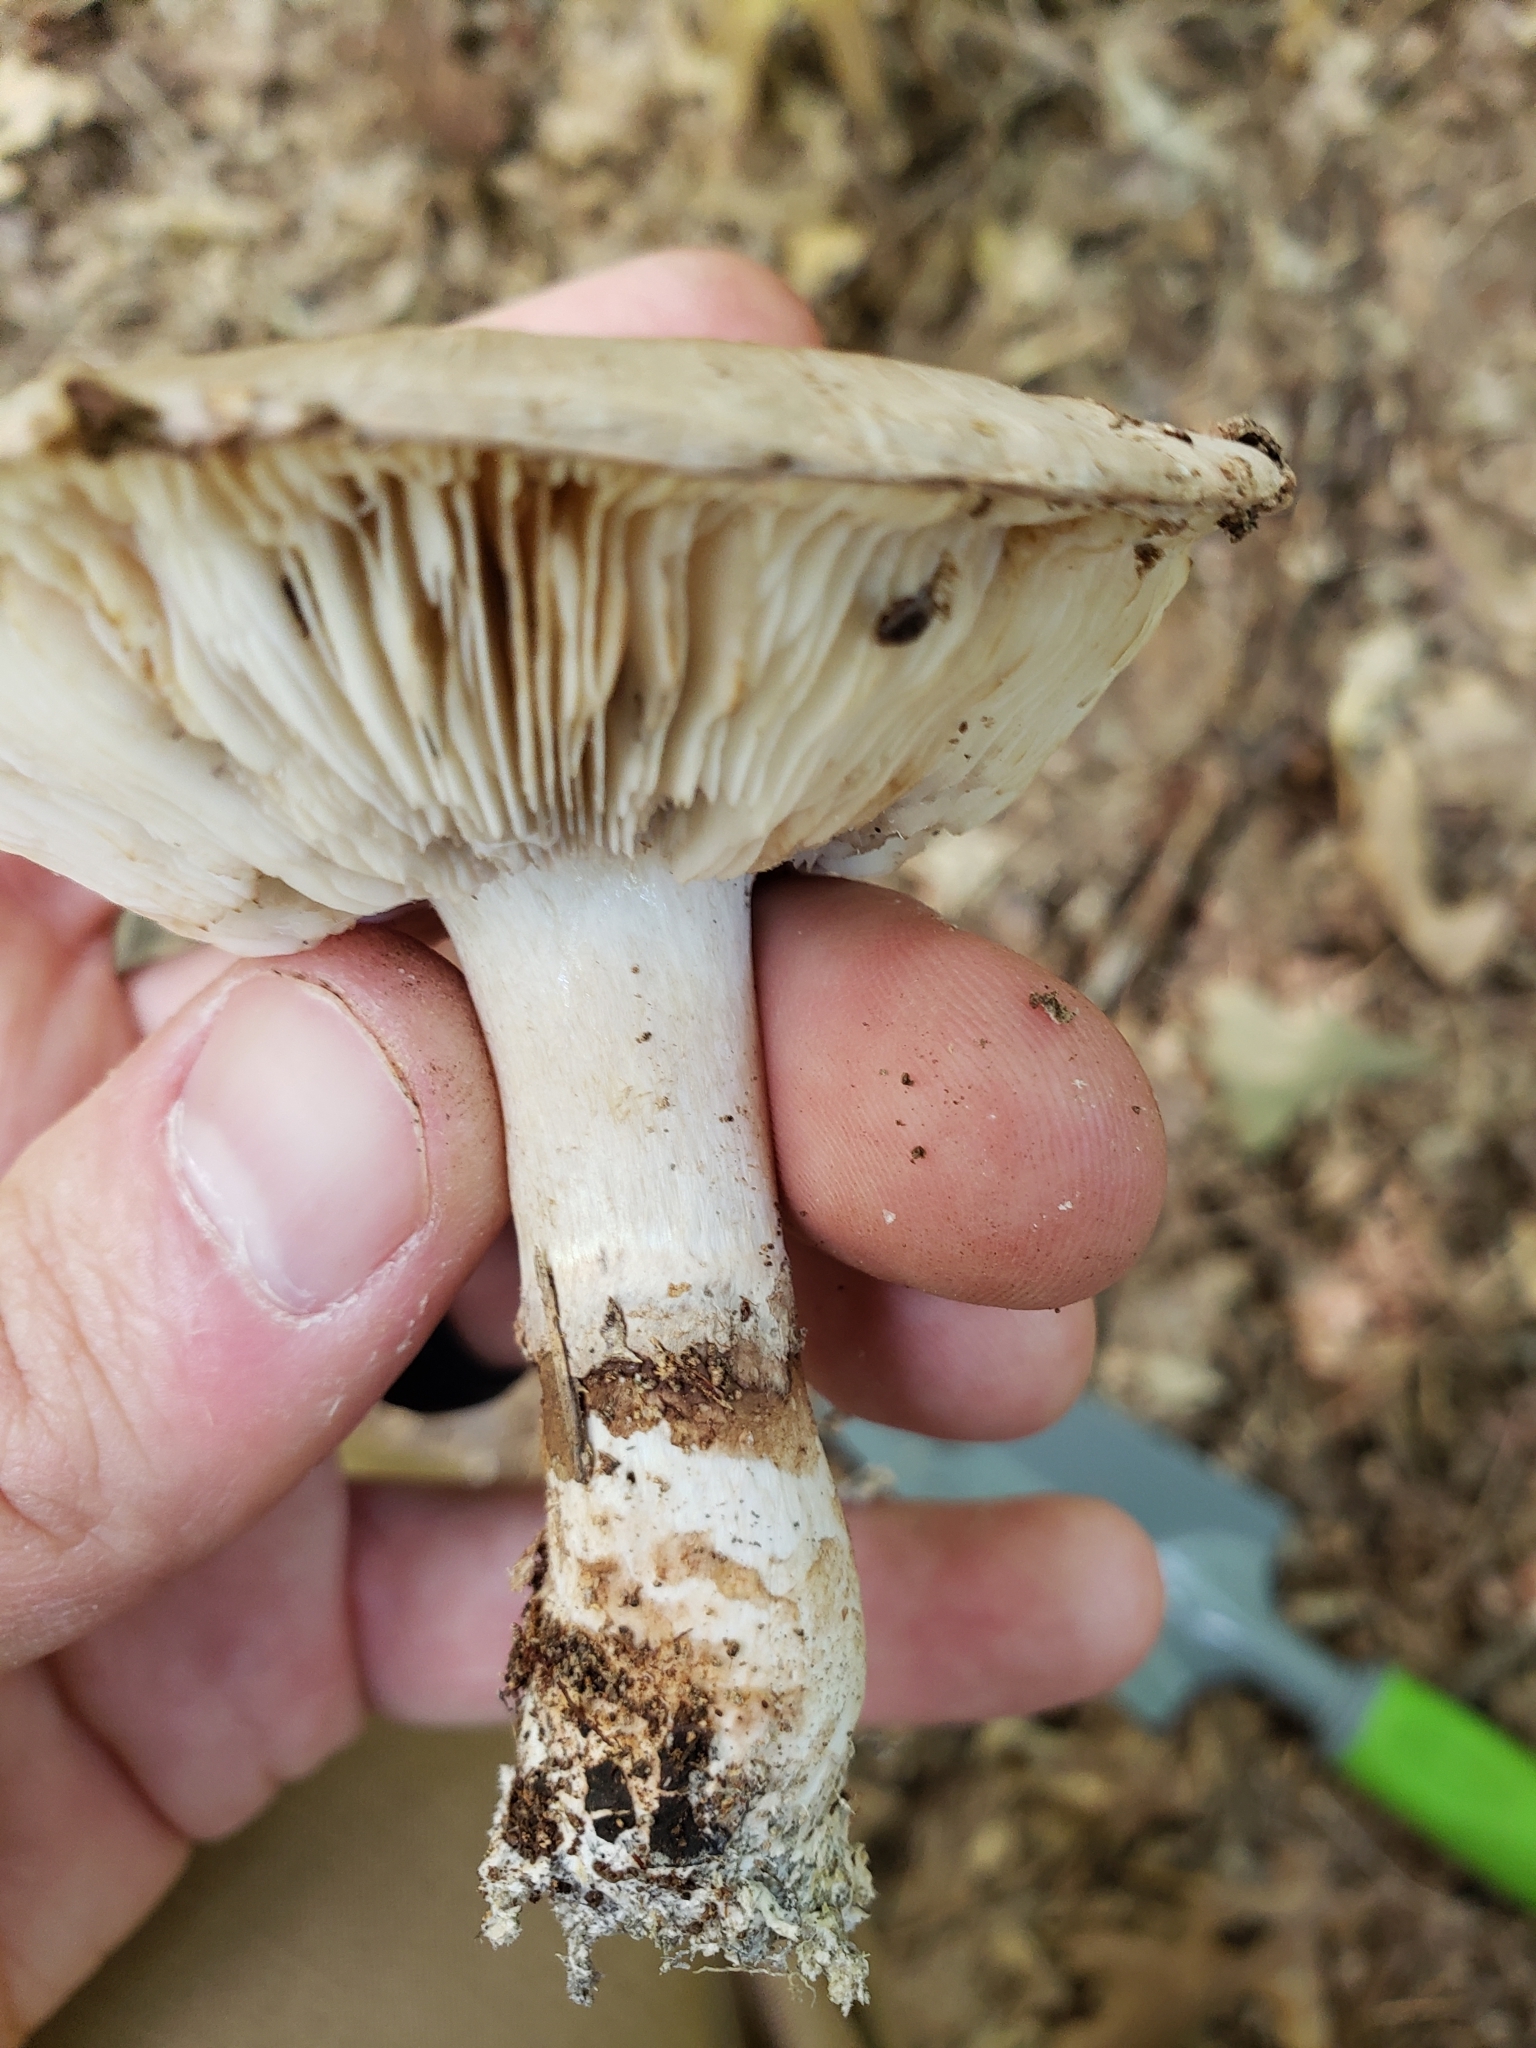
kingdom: Fungi
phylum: Basidiomycota
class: Agaricomycetes
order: Agaricales
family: Tricholomataceae
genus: Tricholoma
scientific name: Tricholoma caligatum
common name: True booted knight
